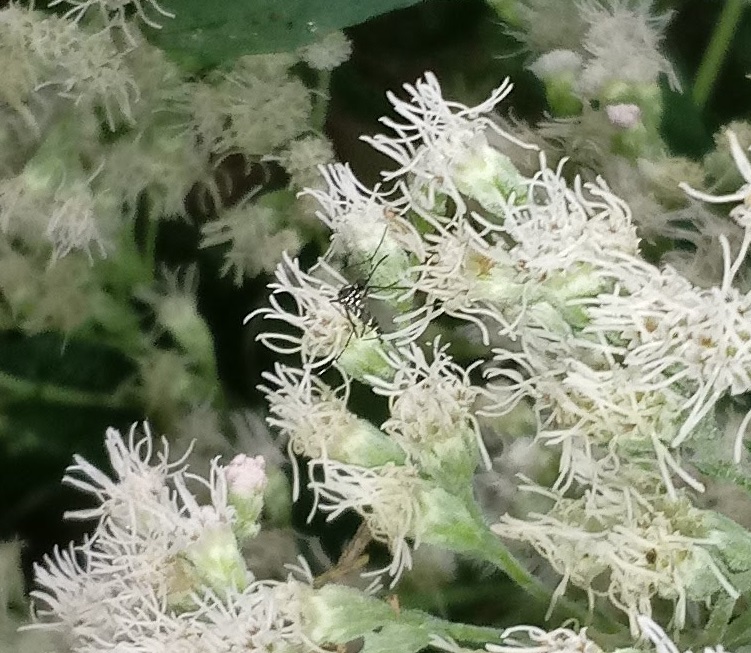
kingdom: Animalia
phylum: Arthropoda
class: Insecta
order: Diptera
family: Culicidae
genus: Aedes
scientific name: Aedes albopictus
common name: Tiger mosquito
